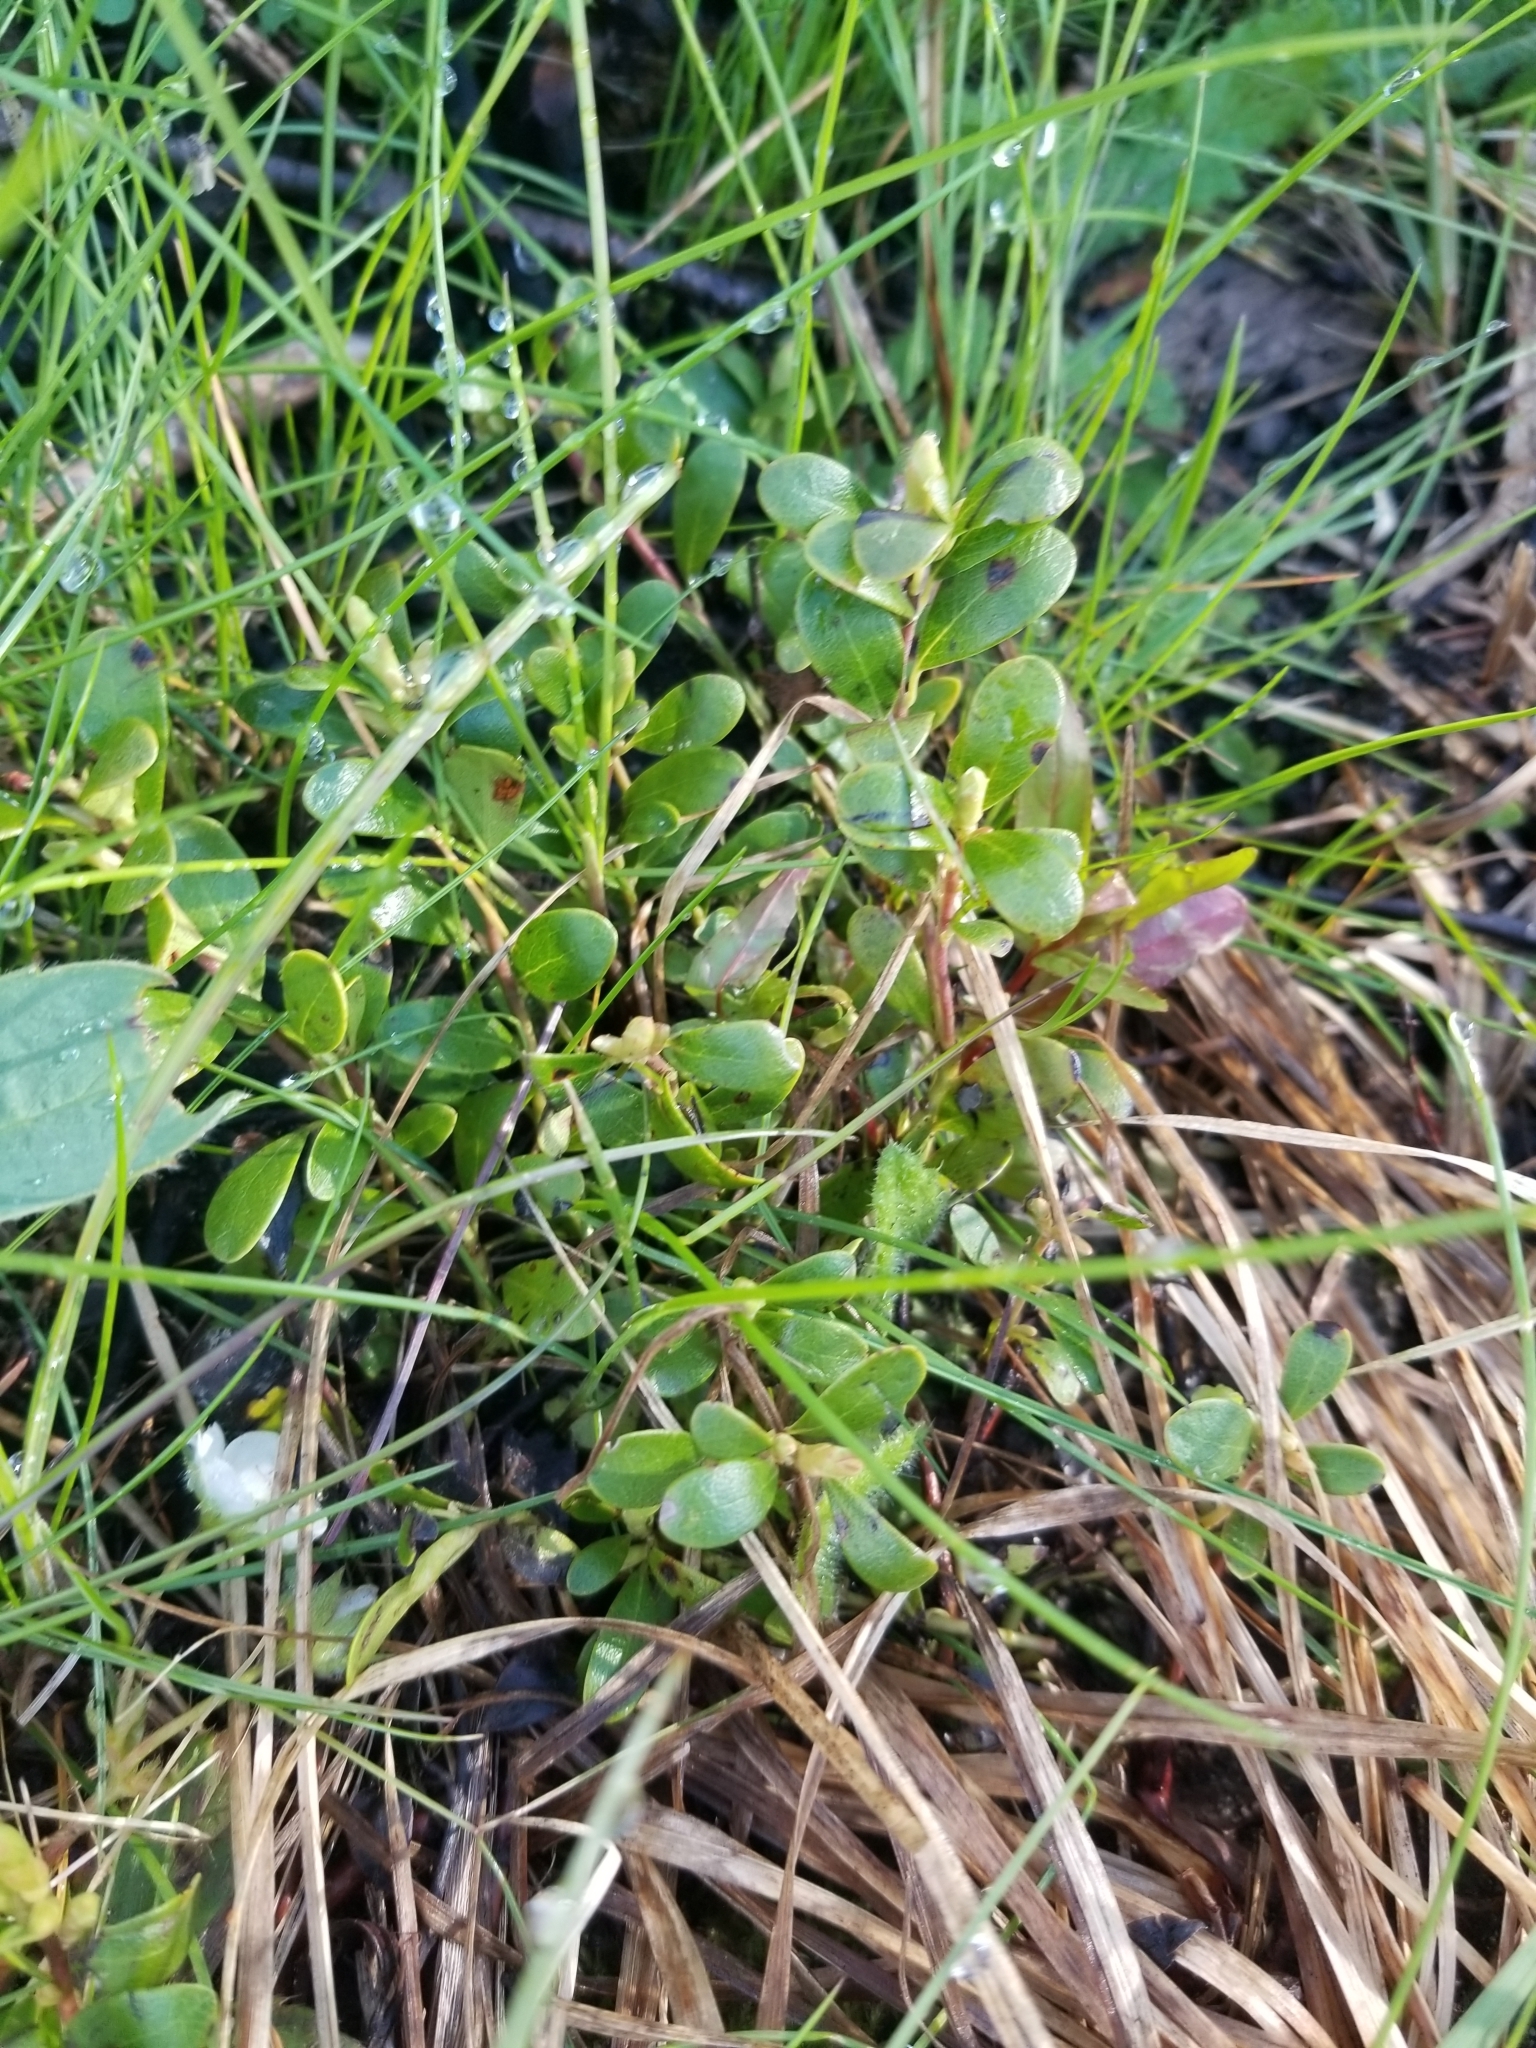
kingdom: Plantae
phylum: Tracheophyta
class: Magnoliopsida
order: Ericales
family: Ericaceae
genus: Arctostaphylos
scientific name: Arctostaphylos uva-ursi
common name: Bearberry
